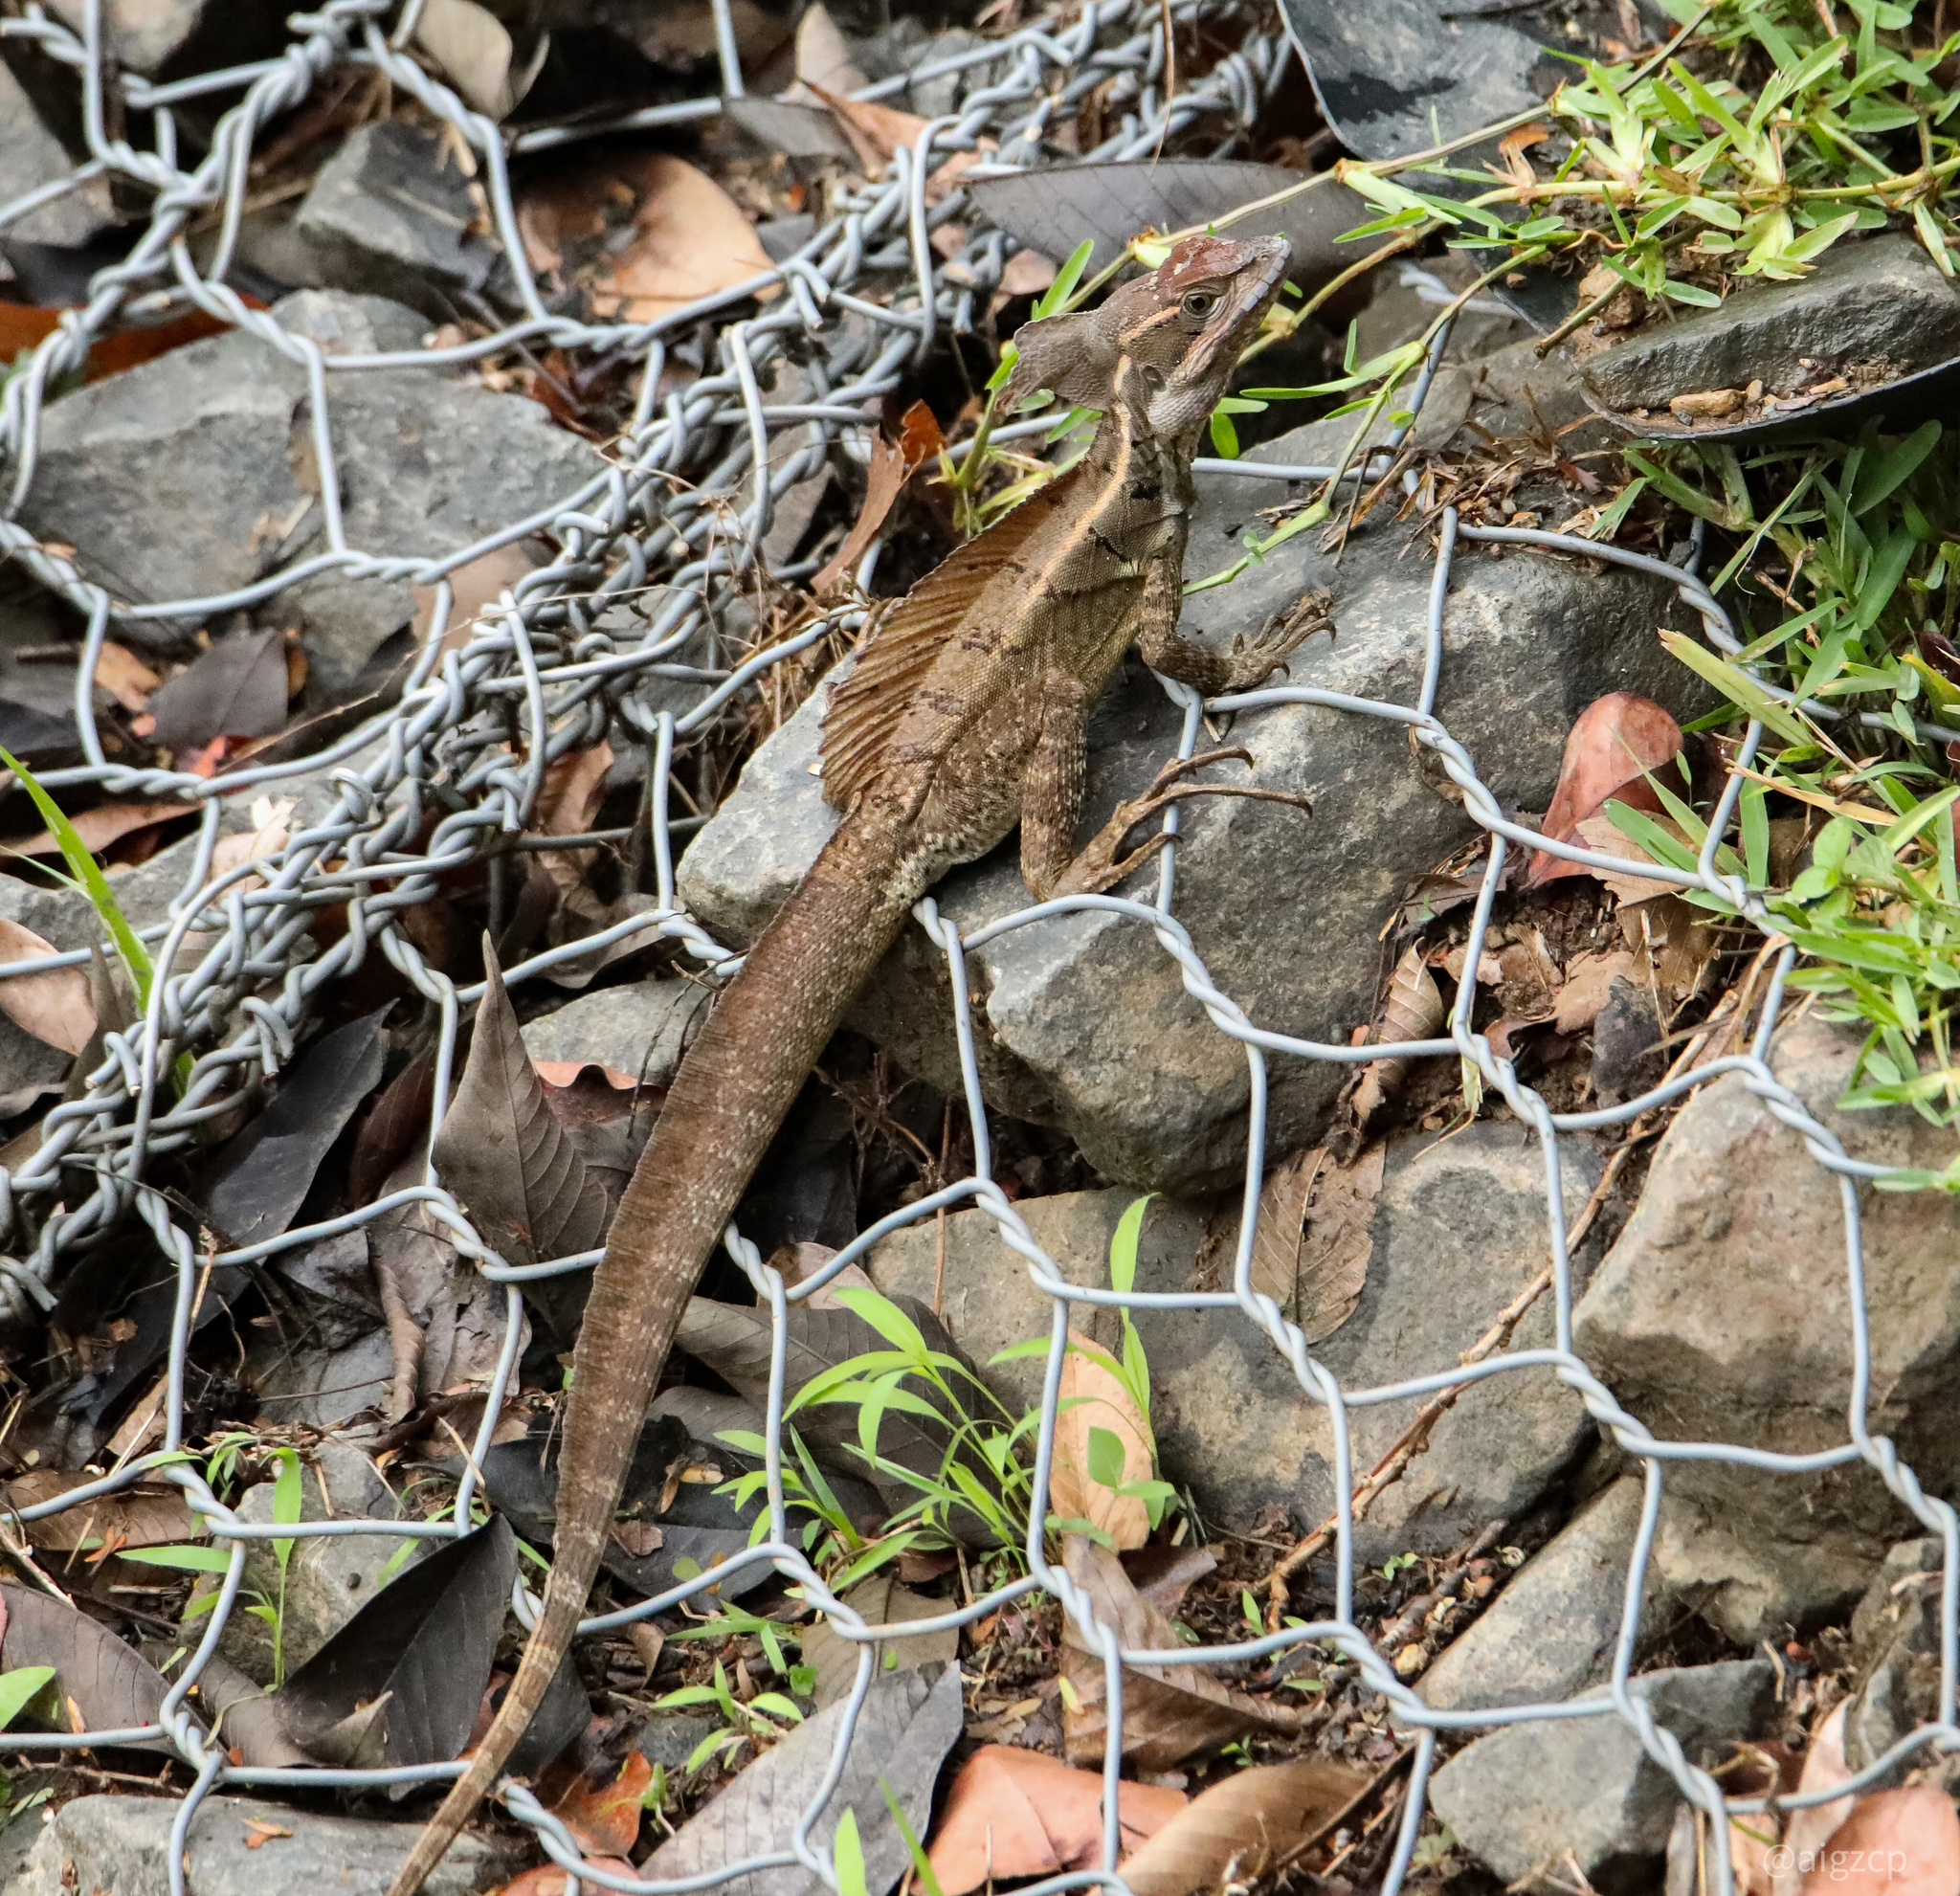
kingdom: Animalia
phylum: Chordata
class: Squamata
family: Corytophanidae
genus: Basiliscus
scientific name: Basiliscus basiliscus
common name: Common basilisk
